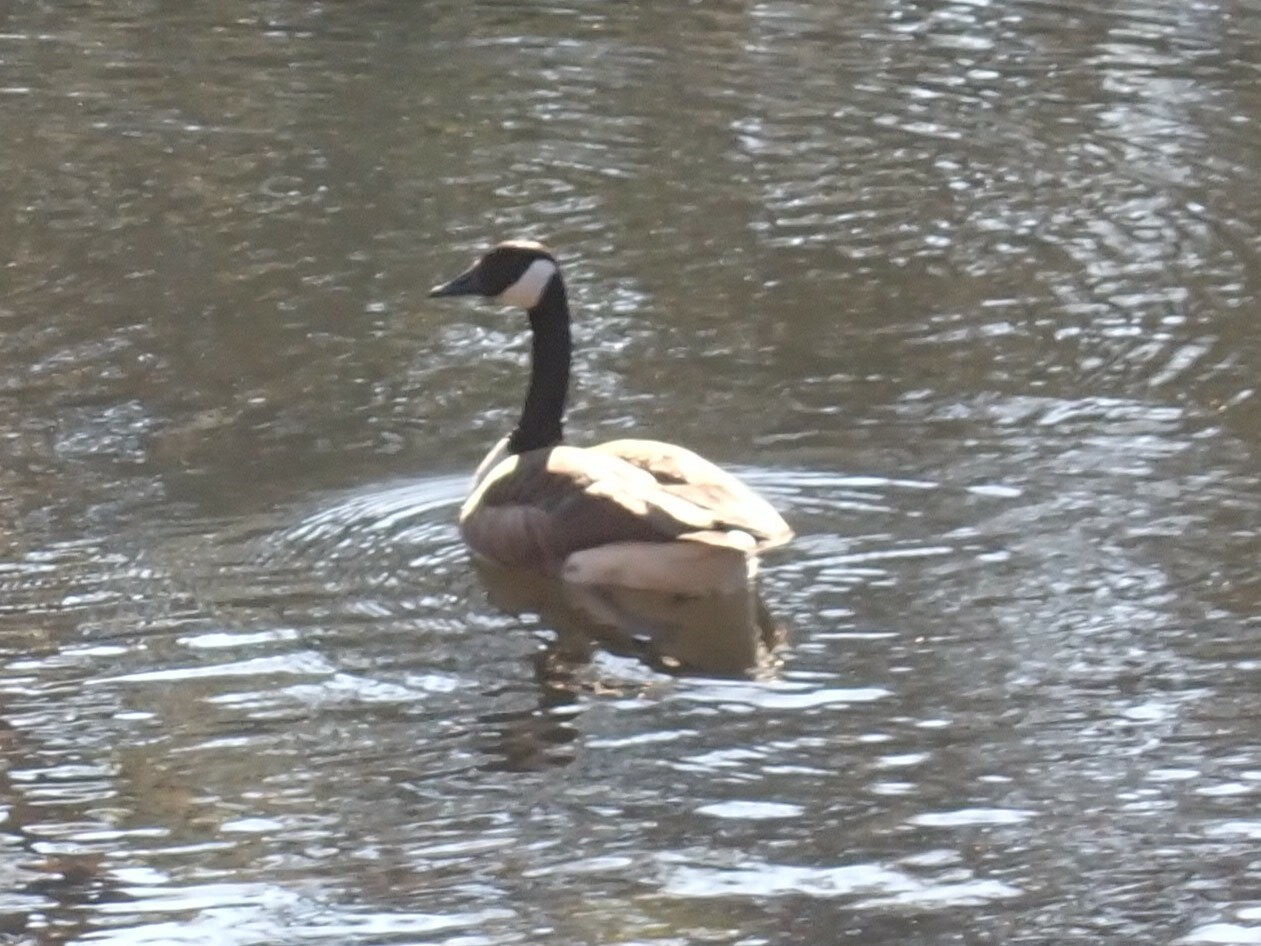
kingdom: Animalia
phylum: Chordata
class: Aves
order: Anseriformes
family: Anatidae
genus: Branta
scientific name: Branta canadensis
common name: Canada goose
